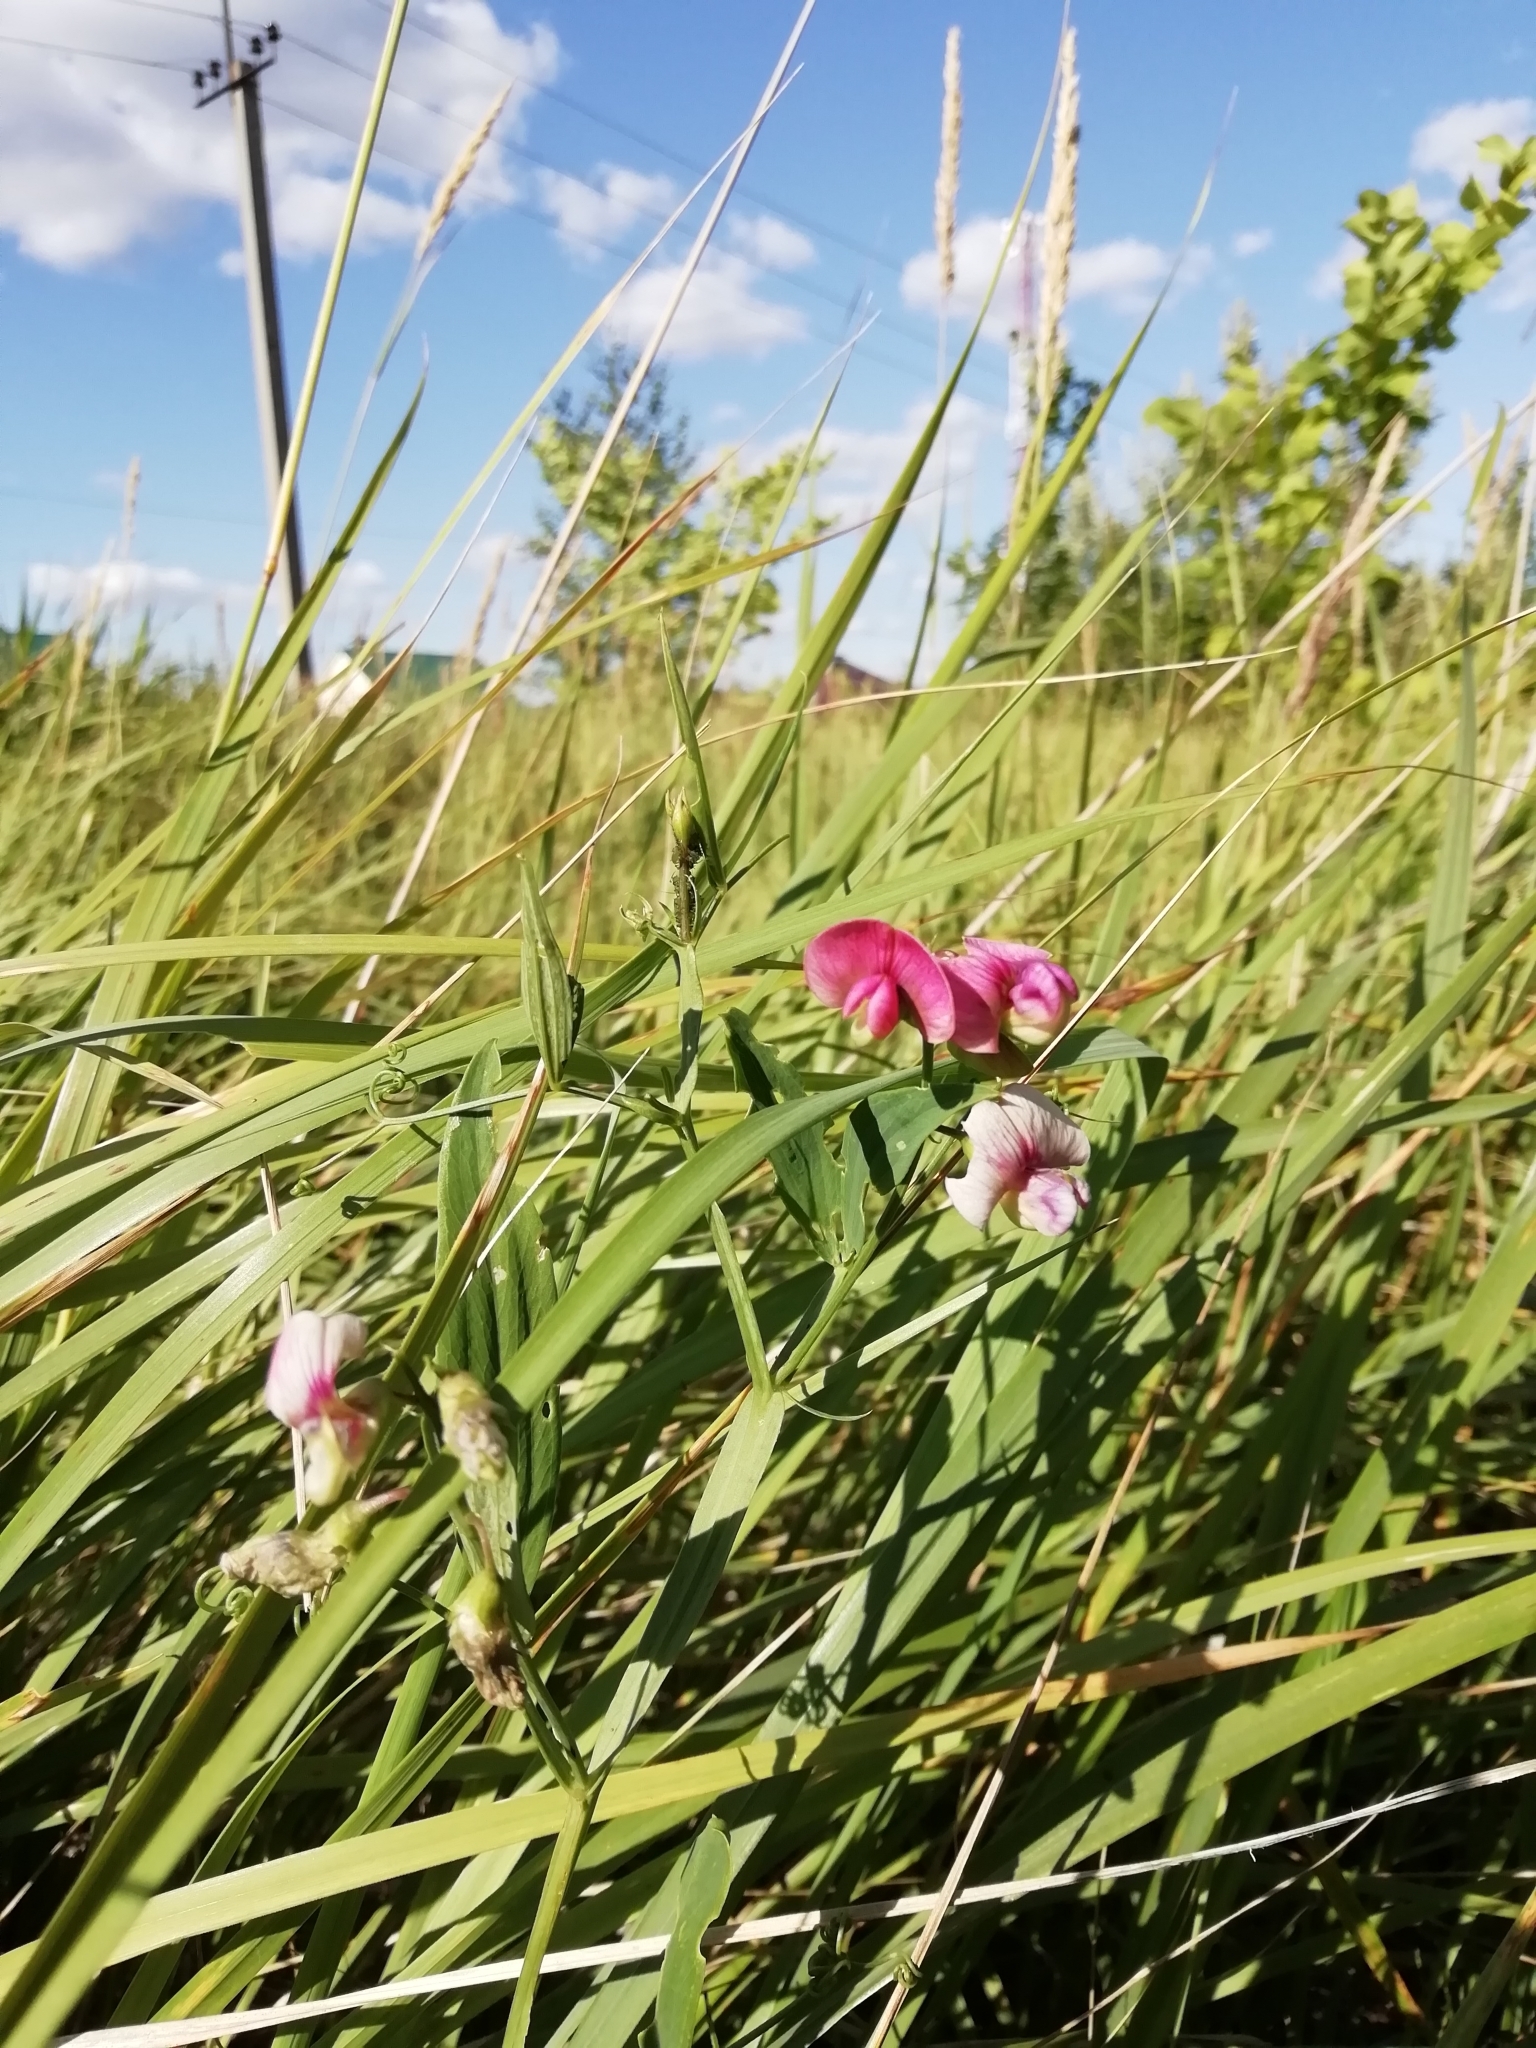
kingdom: Plantae
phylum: Tracheophyta
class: Magnoliopsida
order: Fabales
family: Fabaceae
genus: Lathyrus
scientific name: Lathyrus sylvestris
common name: Flat pea
